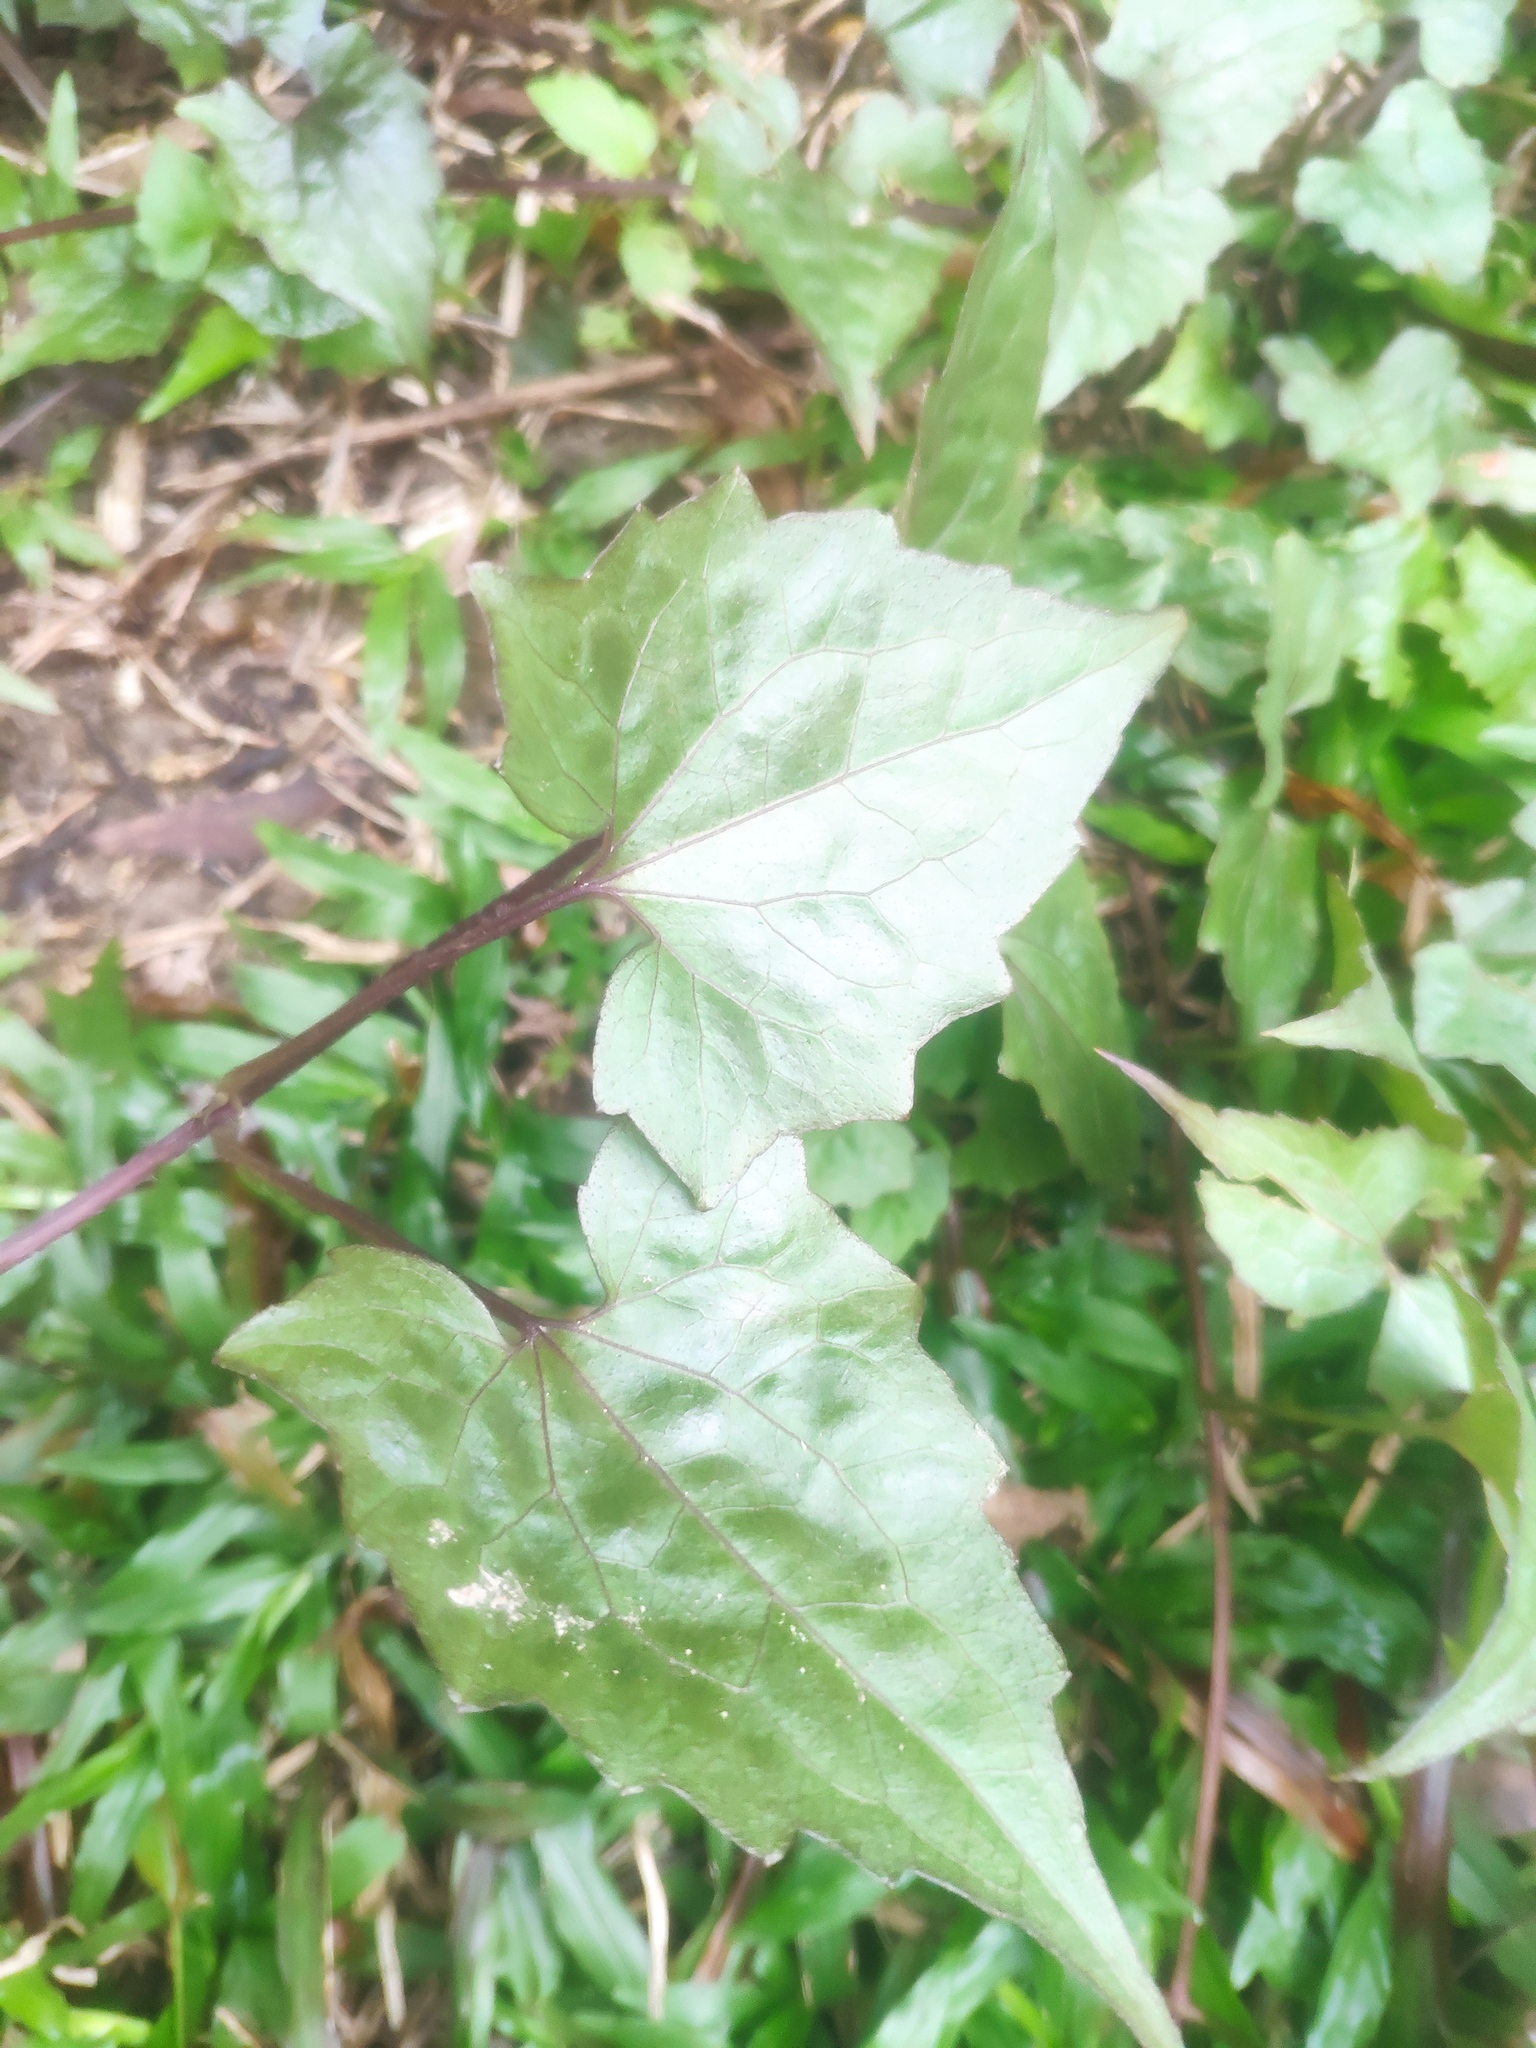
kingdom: Plantae
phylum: Tracheophyta
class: Magnoliopsida
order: Asterales
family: Asteraceae
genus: Mikania
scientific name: Mikania micrantha
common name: Mile-a-minute
